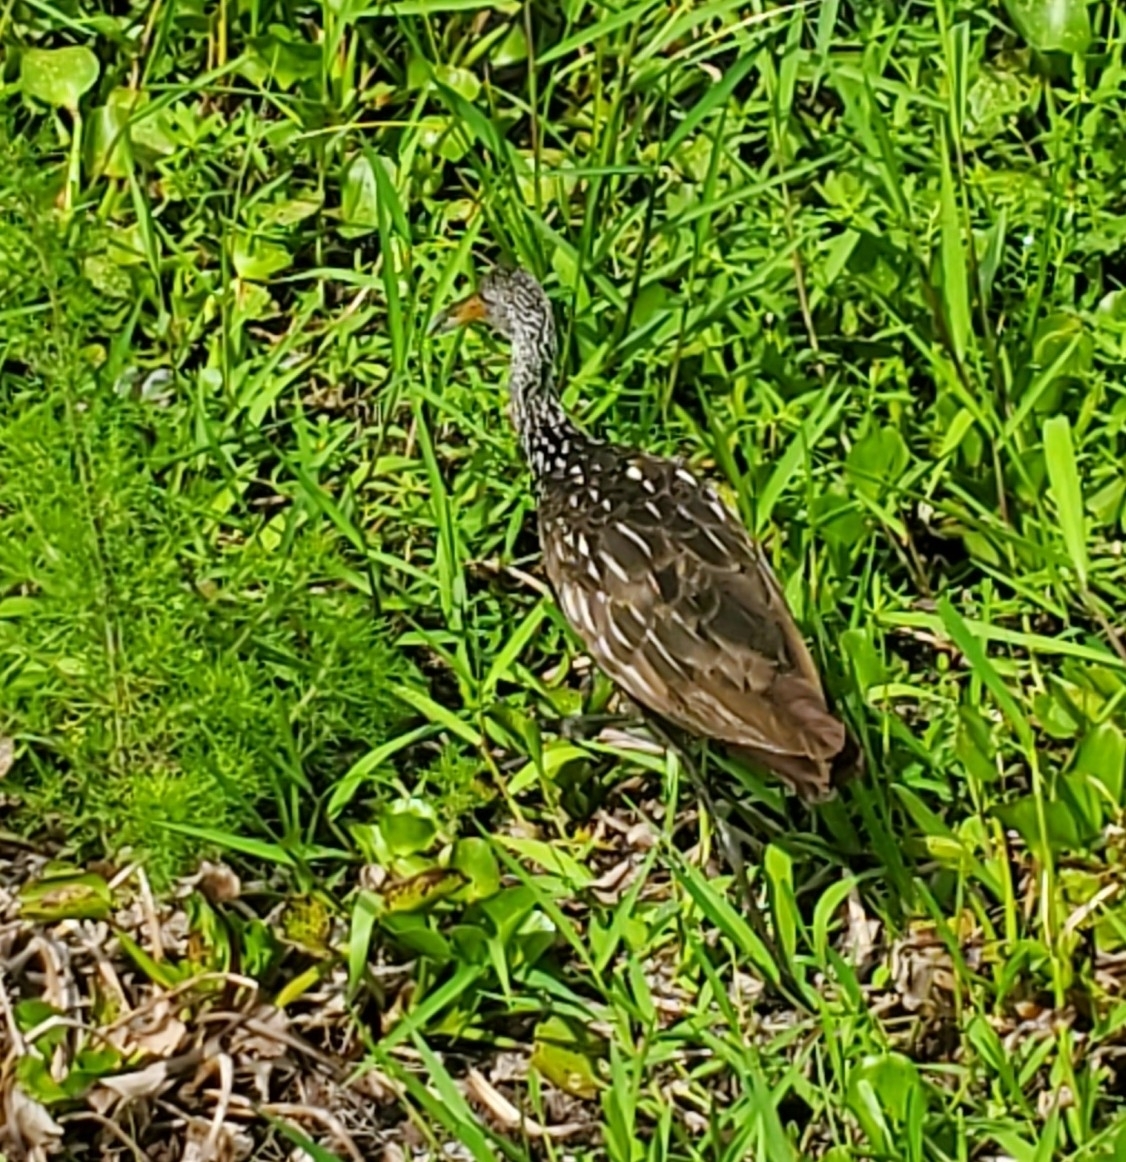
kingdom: Animalia
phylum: Chordata
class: Aves
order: Gruiformes
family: Aramidae
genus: Aramus
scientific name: Aramus guarauna
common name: Limpkin
